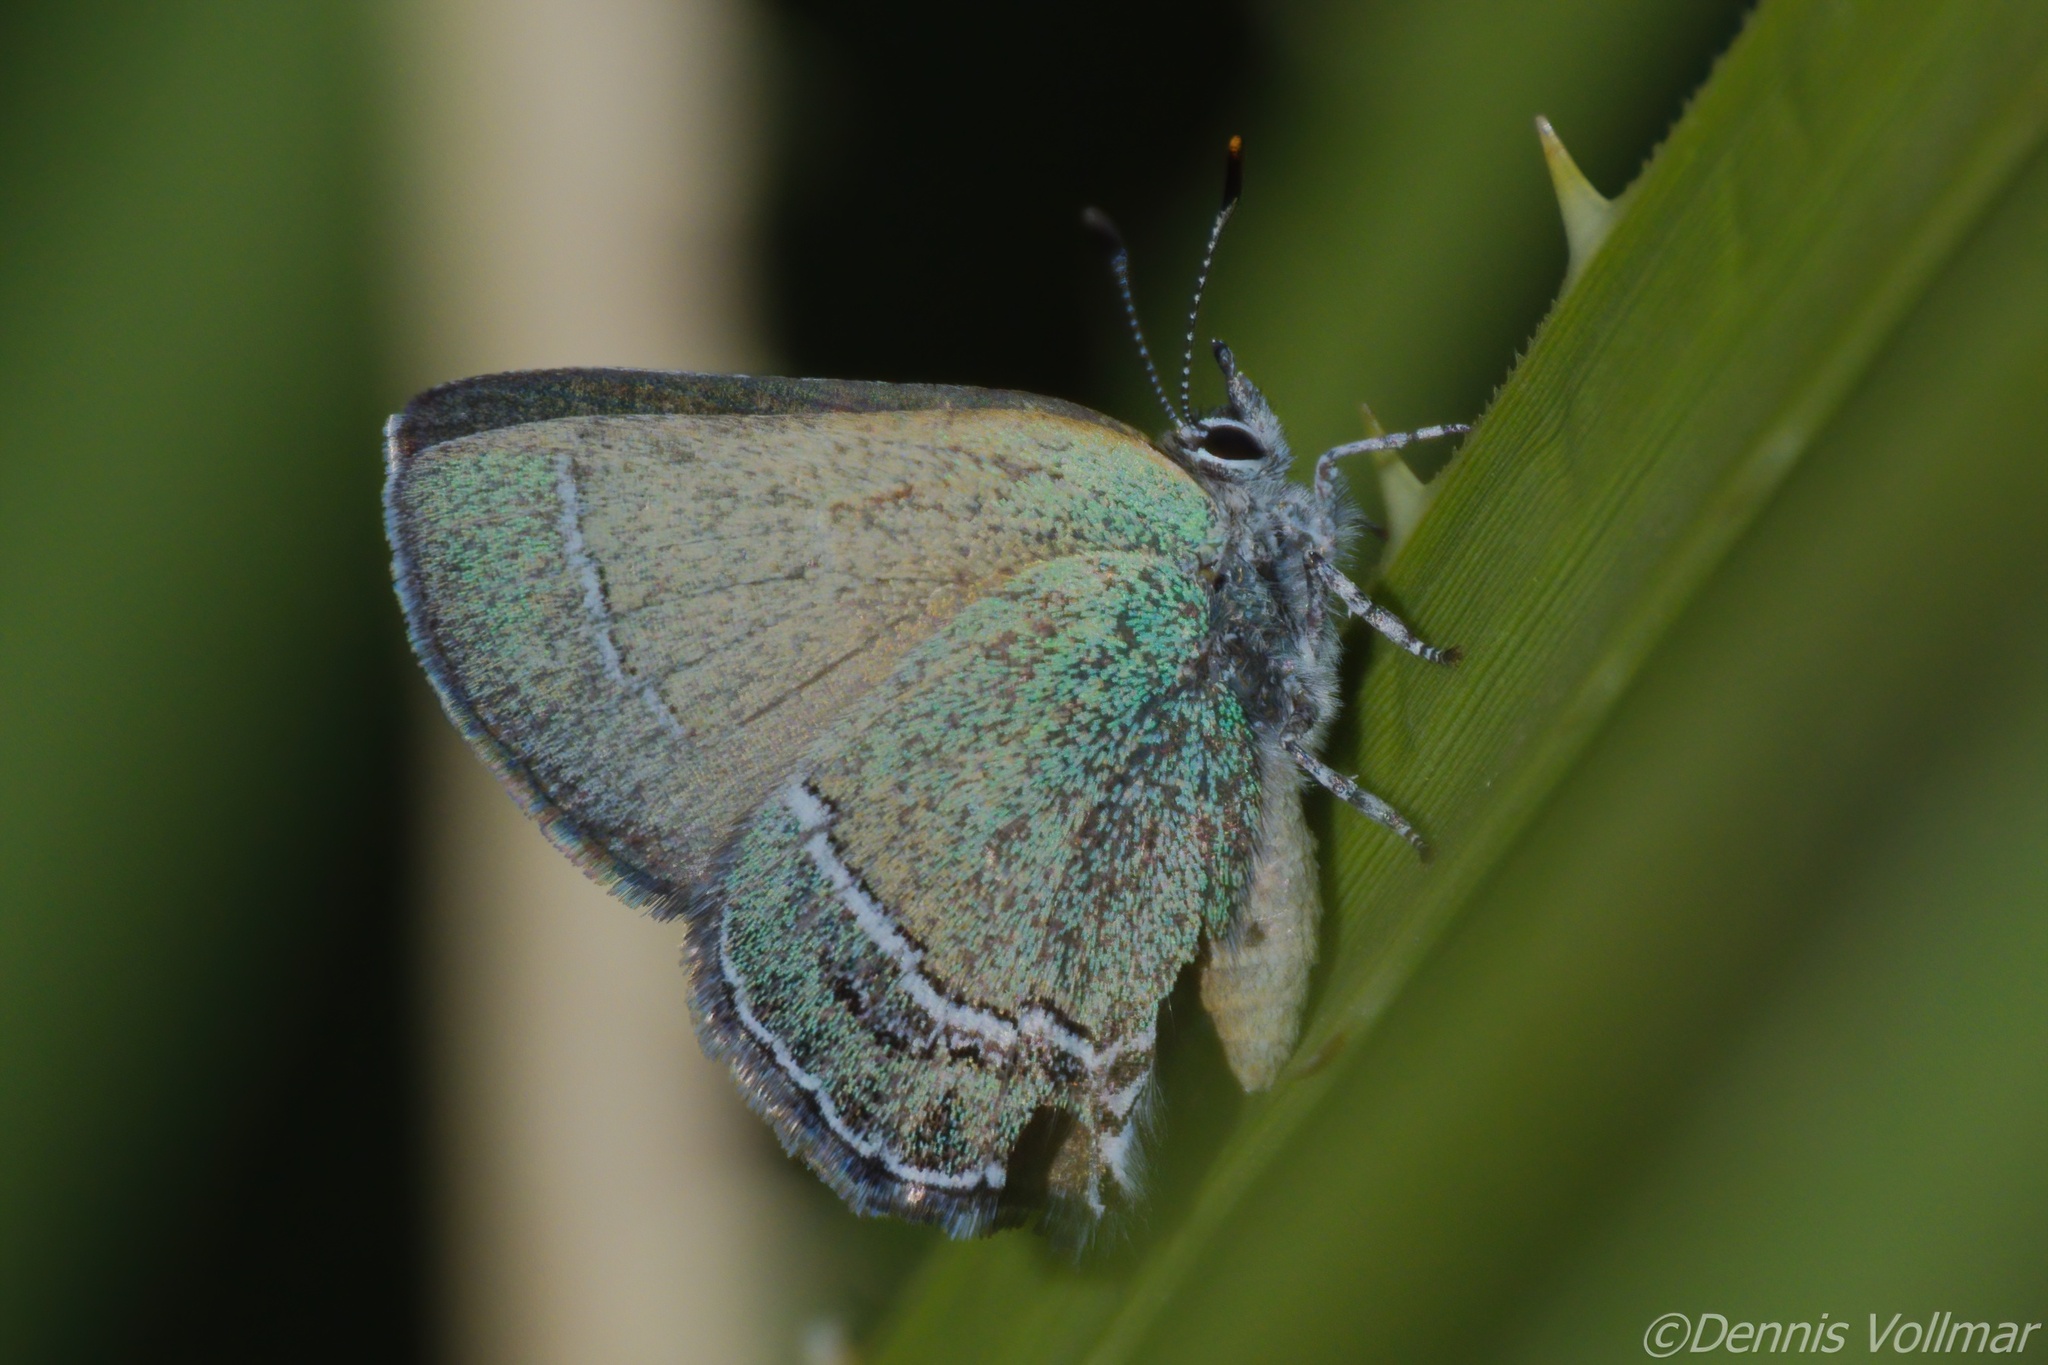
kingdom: Animalia
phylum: Arthropoda
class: Insecta
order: Lepidoptera
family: Lycaenidae
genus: Sandia
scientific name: Sandia mcfarlandi
